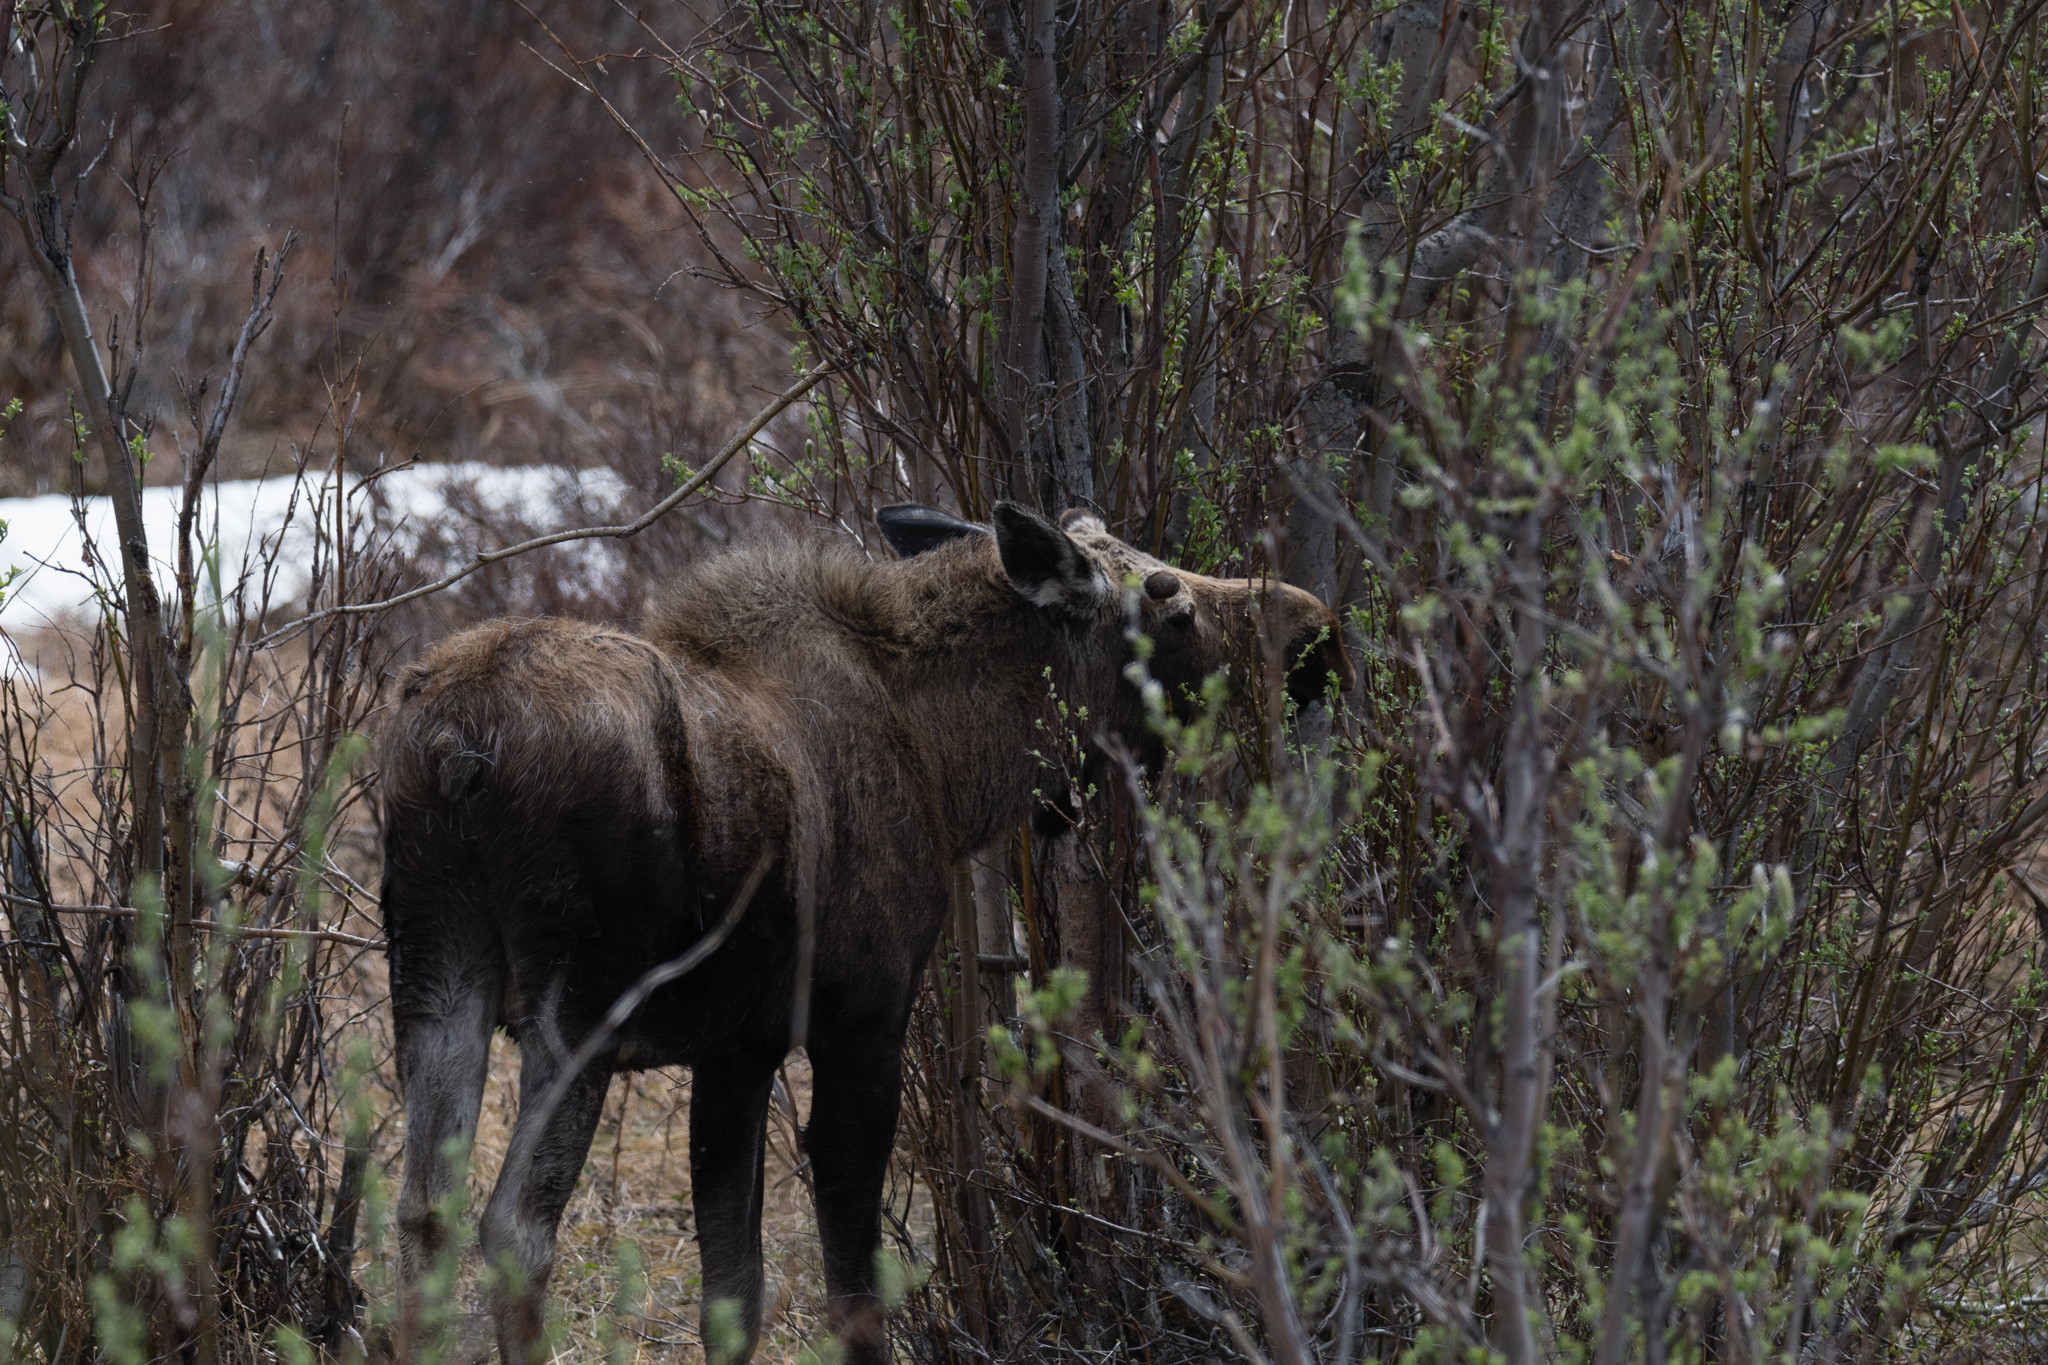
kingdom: Animalia
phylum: Chordata
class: Mammalia
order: Artiodactyla
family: Cervidae
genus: Alces
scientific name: Alces alces
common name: Moose
